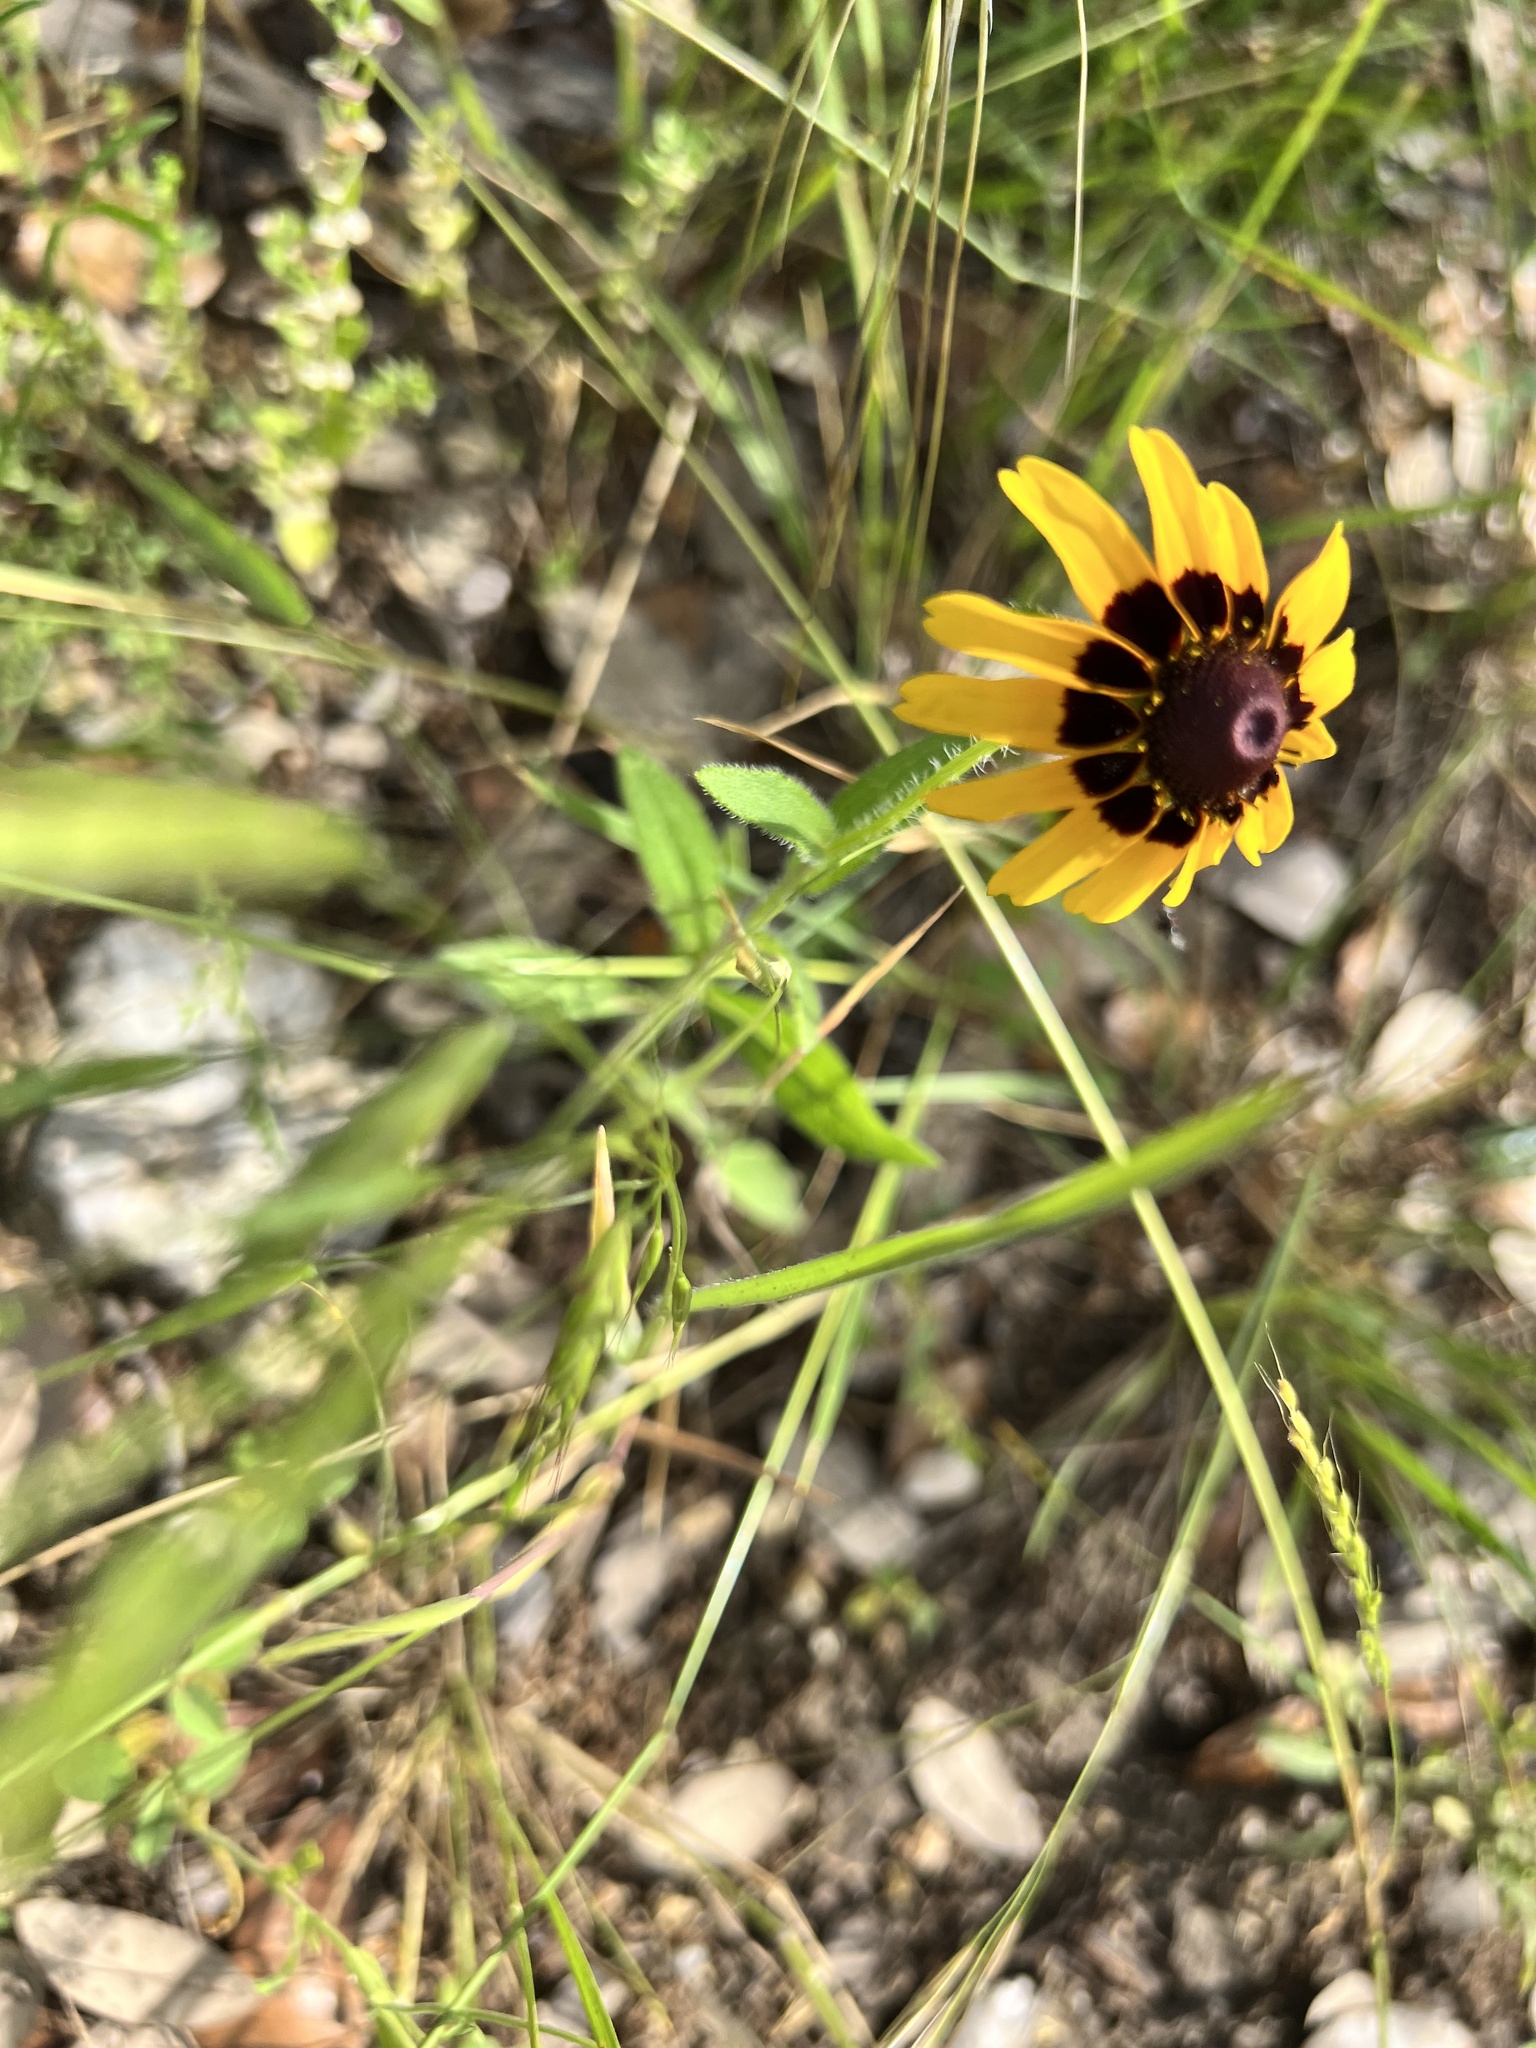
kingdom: Plantae
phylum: Tracheophyta
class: Magnoliopsida
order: Asterales
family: Asteraceae
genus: Rudbeckia
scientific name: Rudbeckia hirta
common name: Black-eyed-susan
